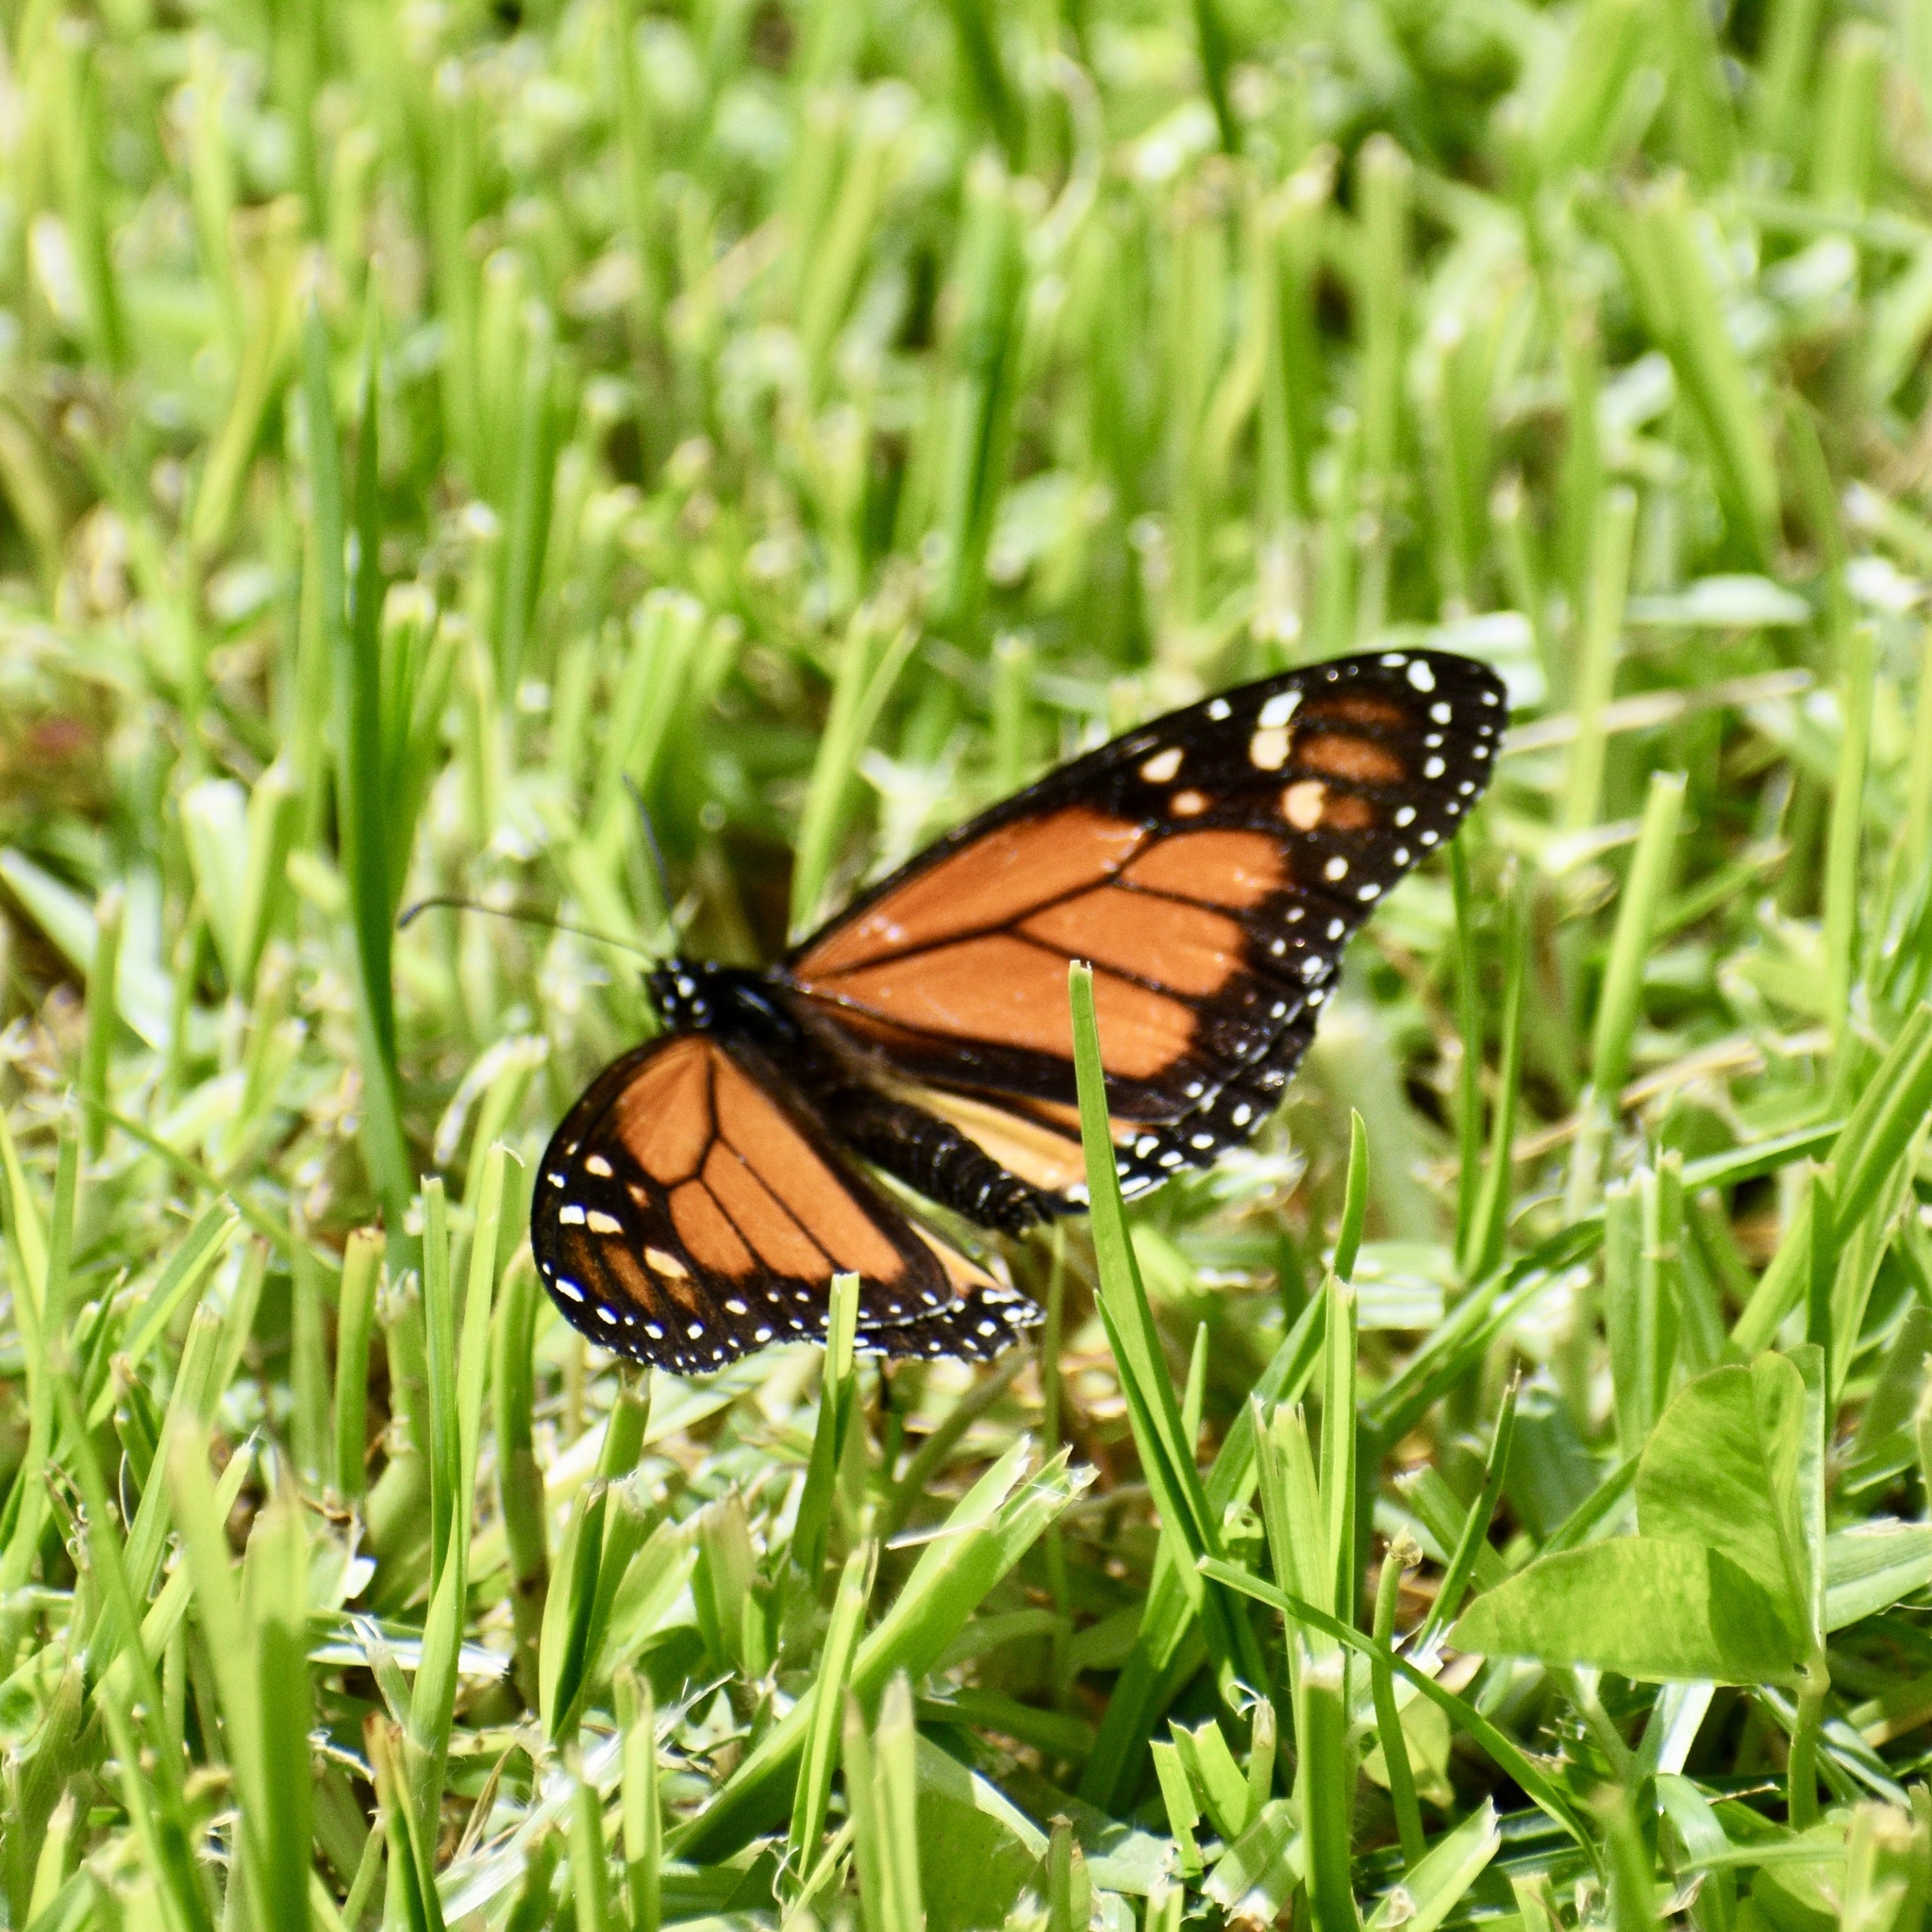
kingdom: Animalia
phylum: Arthropoda
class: Insecta
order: Lepidoptera
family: Nymphalidae
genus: Danaus
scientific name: Danaus plexippus
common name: Monarch
